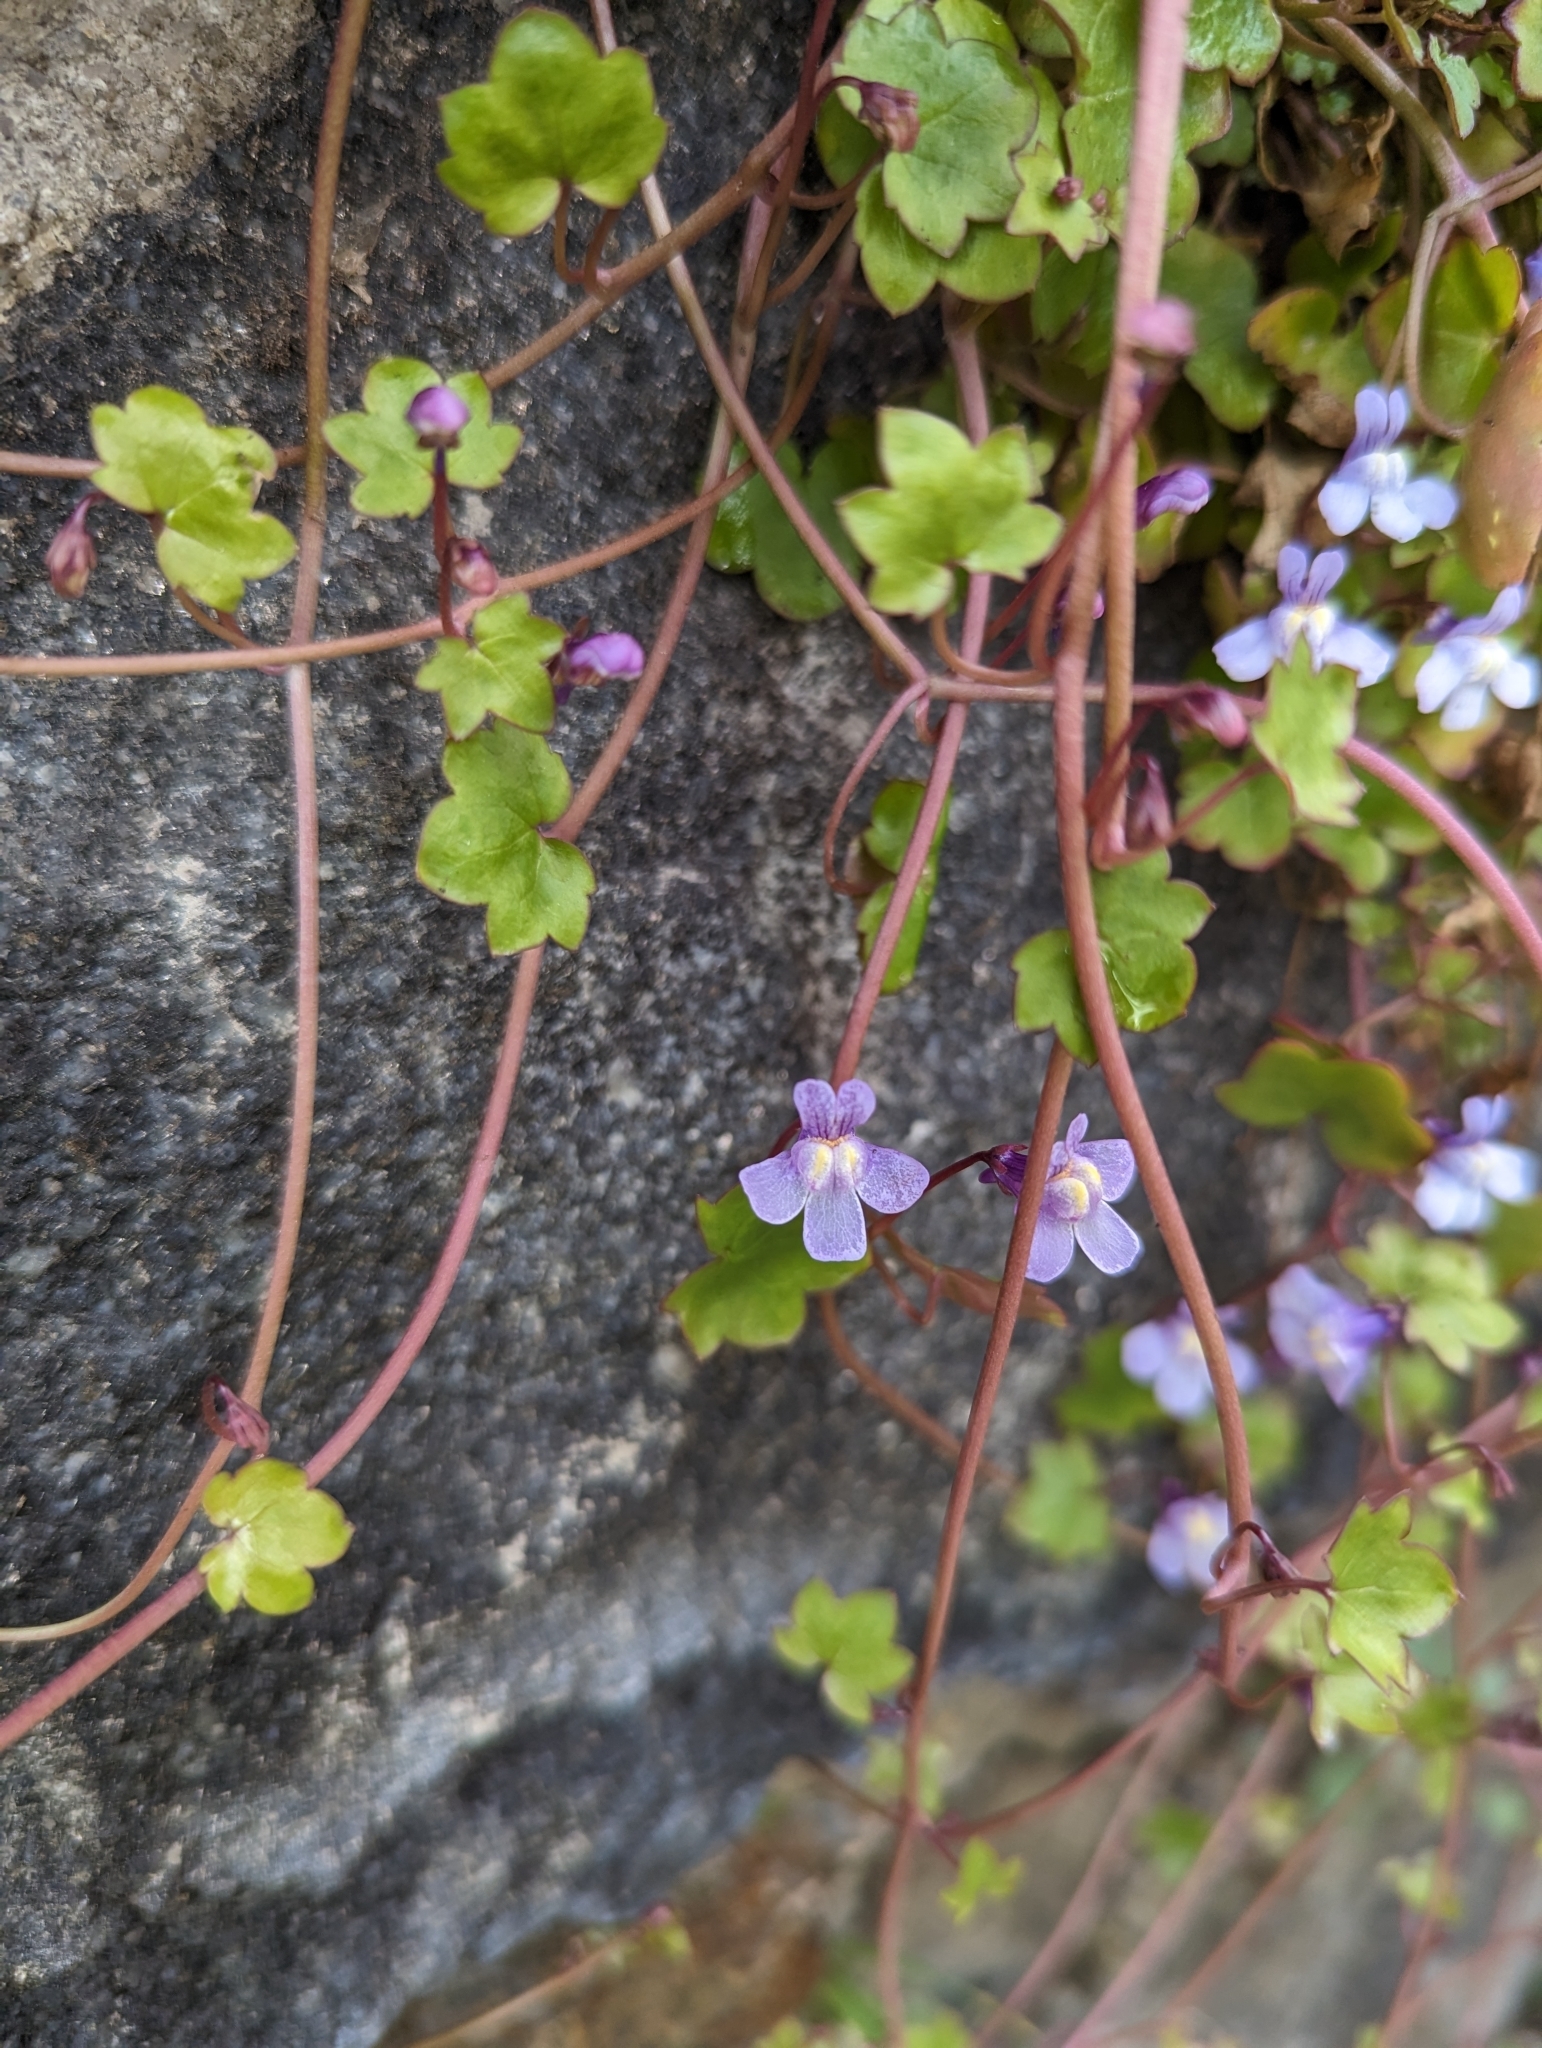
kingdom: Plantae
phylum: Tracheophyta
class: Magnoliopsida
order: Lamiales
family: Plantaginaceae
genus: Cymbalaria
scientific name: Cymbalaria muralis
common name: Ivy-leaved toadflax
